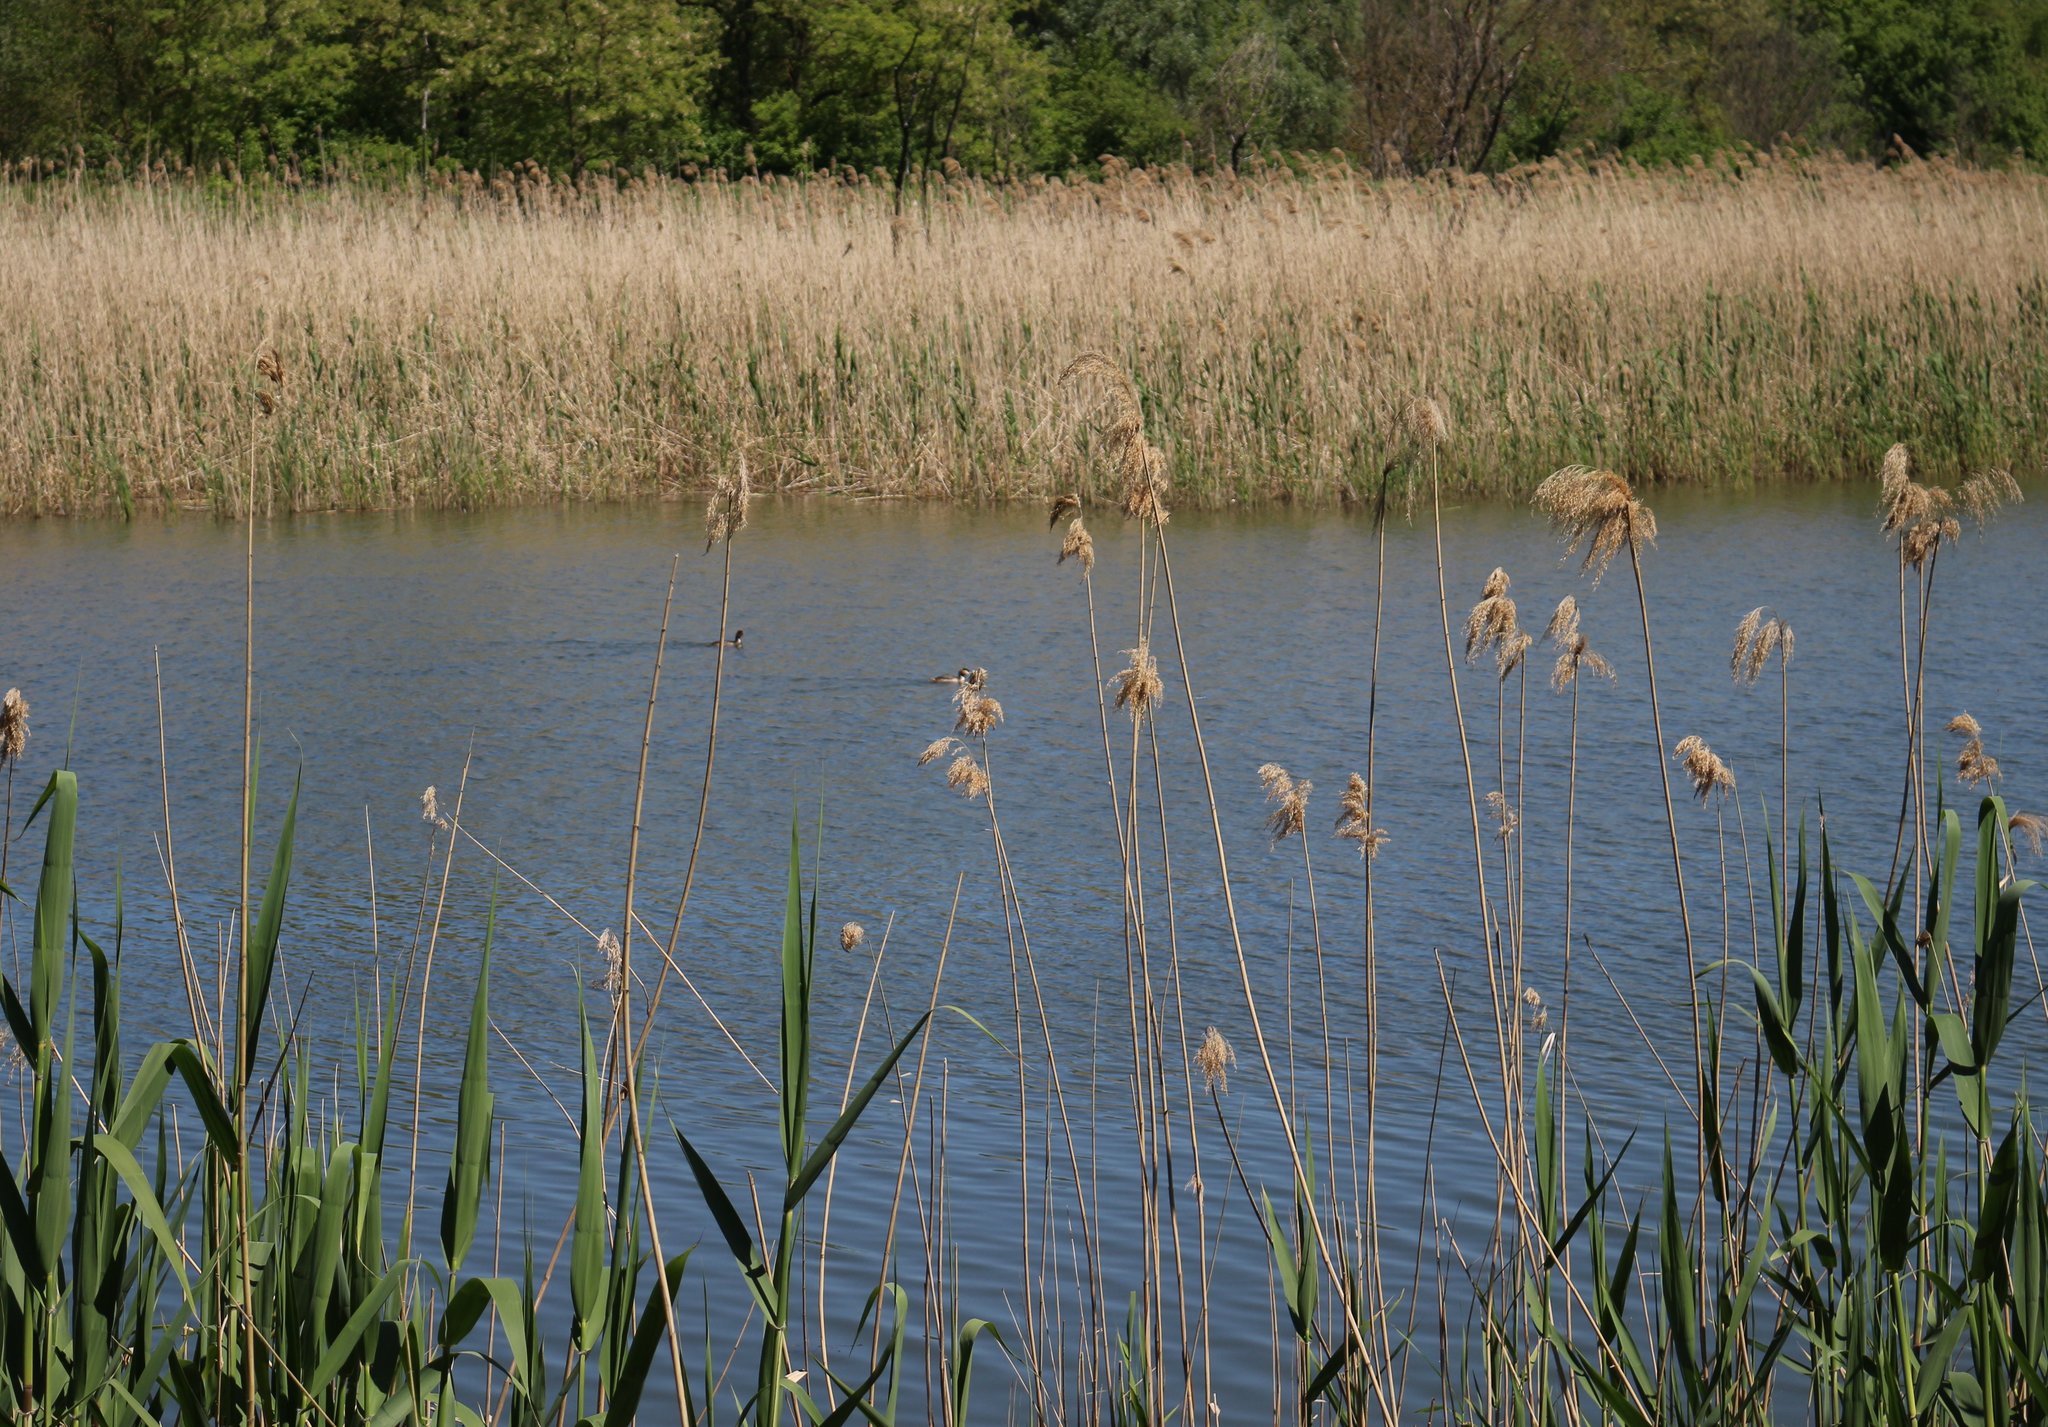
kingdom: Plantae
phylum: Tracheophyta
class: Liliopsida
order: Poales
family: Poaceae
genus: Phragmites
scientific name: Phragmites australis
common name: Common reed
